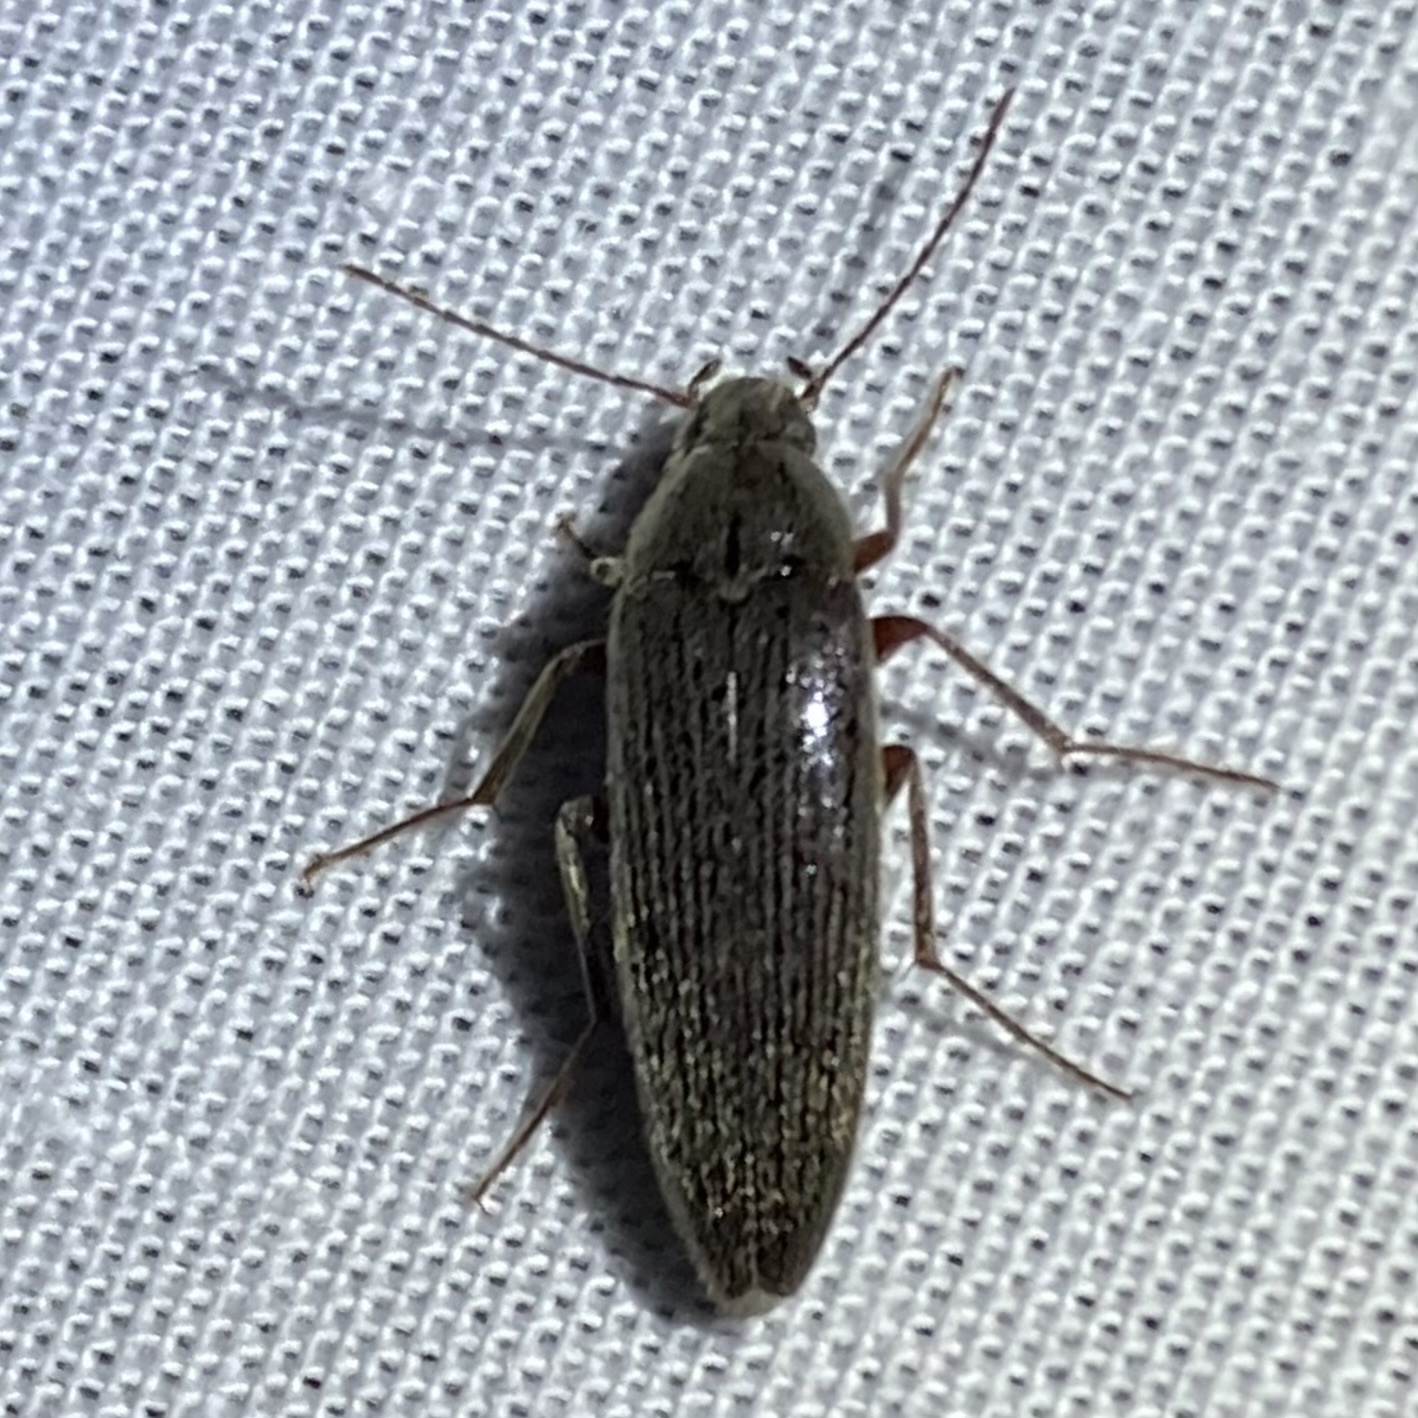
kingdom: Animalia
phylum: Arthropoda
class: Insecta
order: Coleoptera
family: Synchroidae
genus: Synchroa
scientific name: Synchroa punctata
